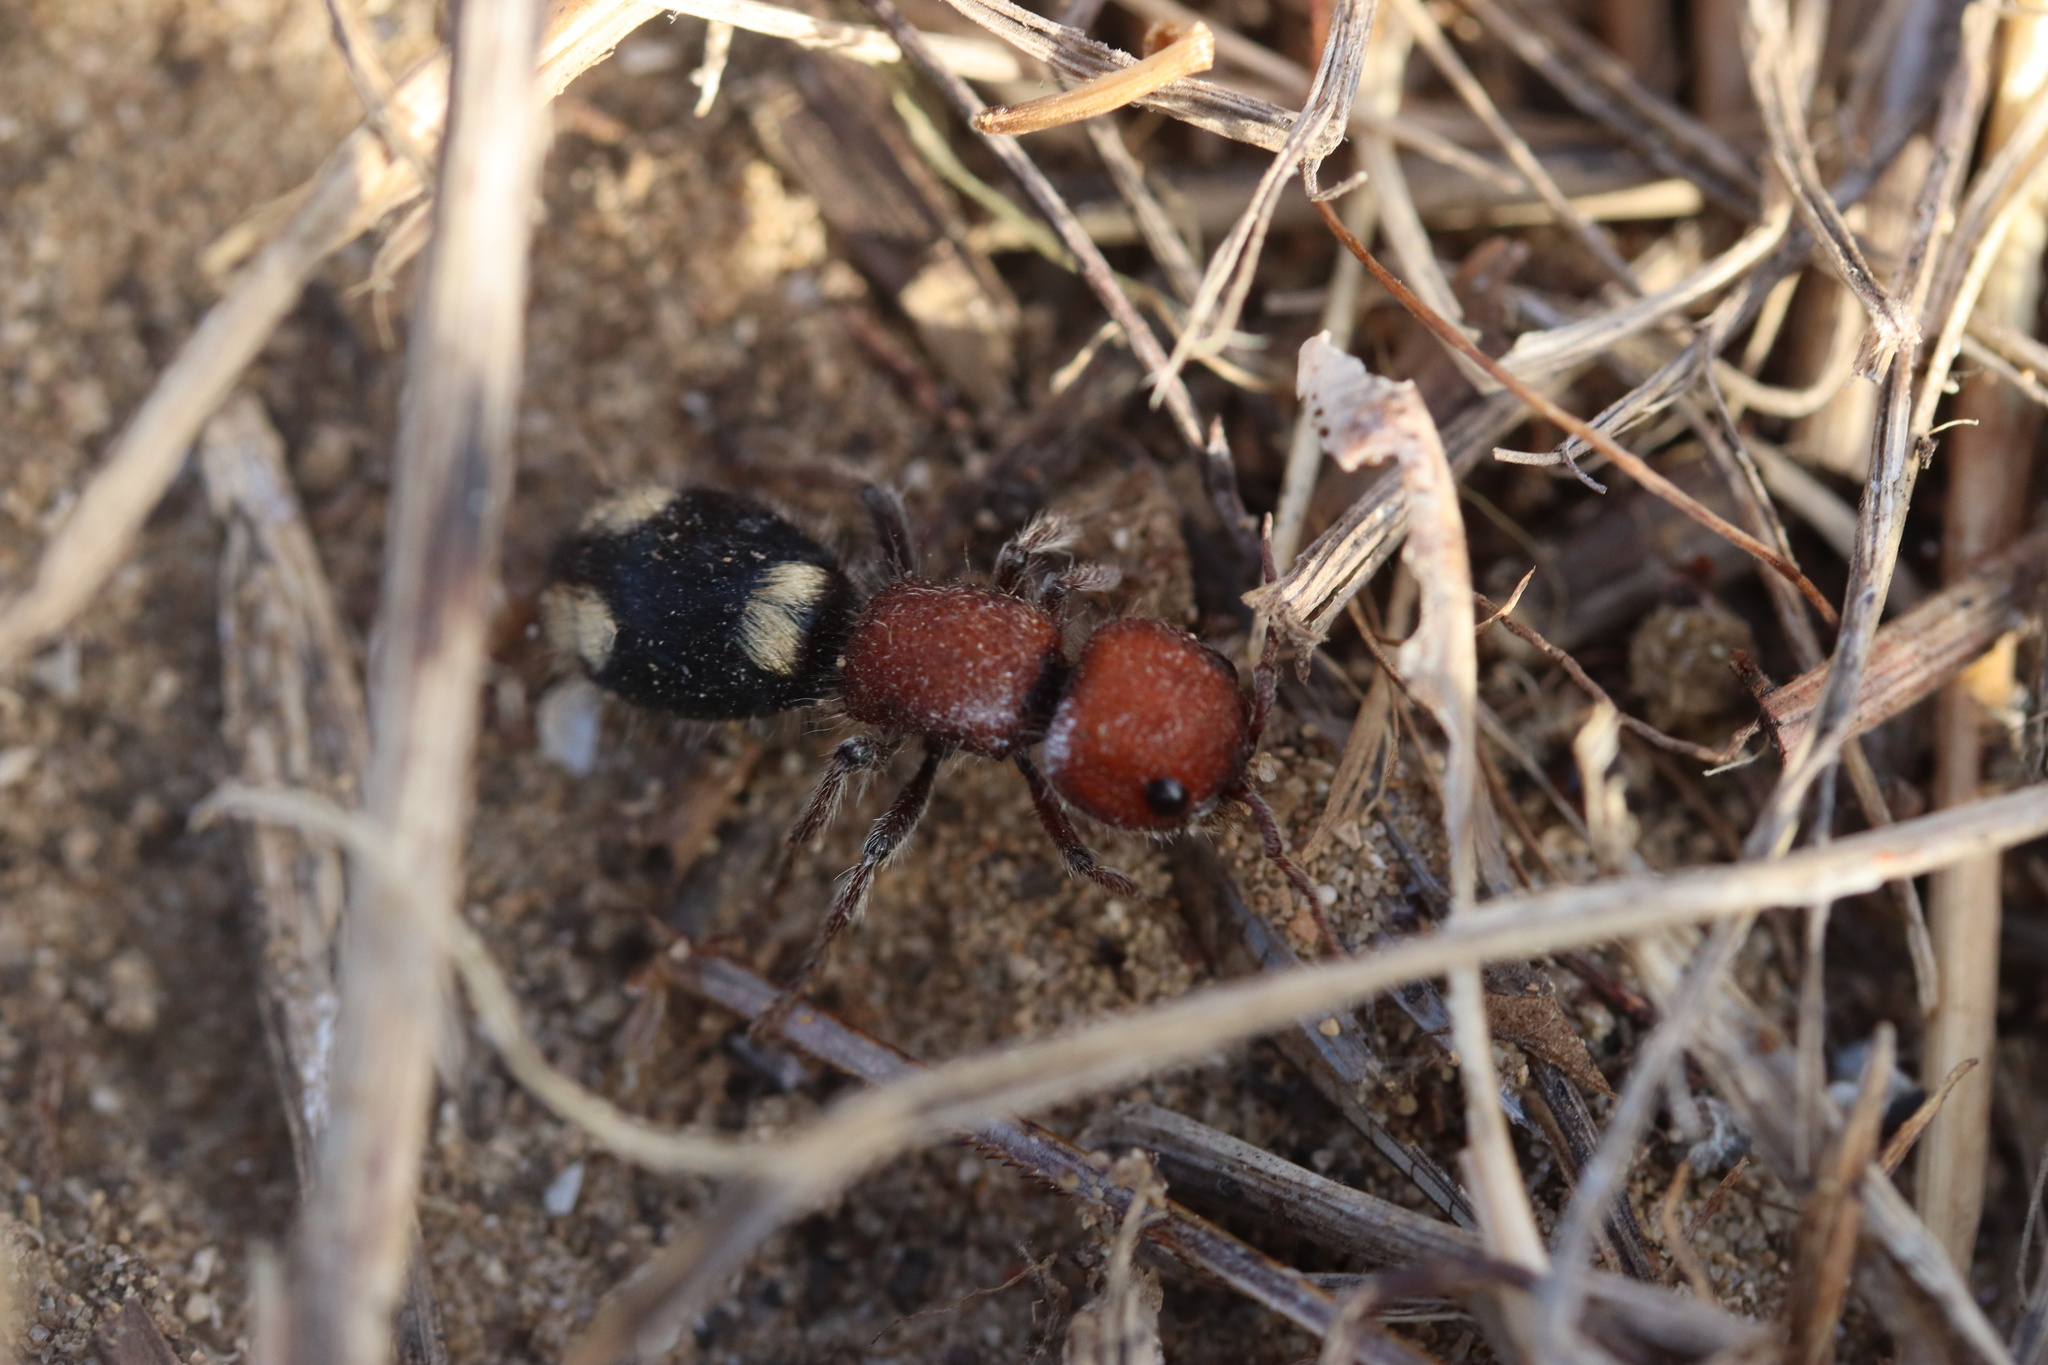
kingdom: Animalia
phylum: Arthropoda
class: Insecta
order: Hymenoptera
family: Mutillidae
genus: Mutilla
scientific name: Mutilla quinquemaculata
